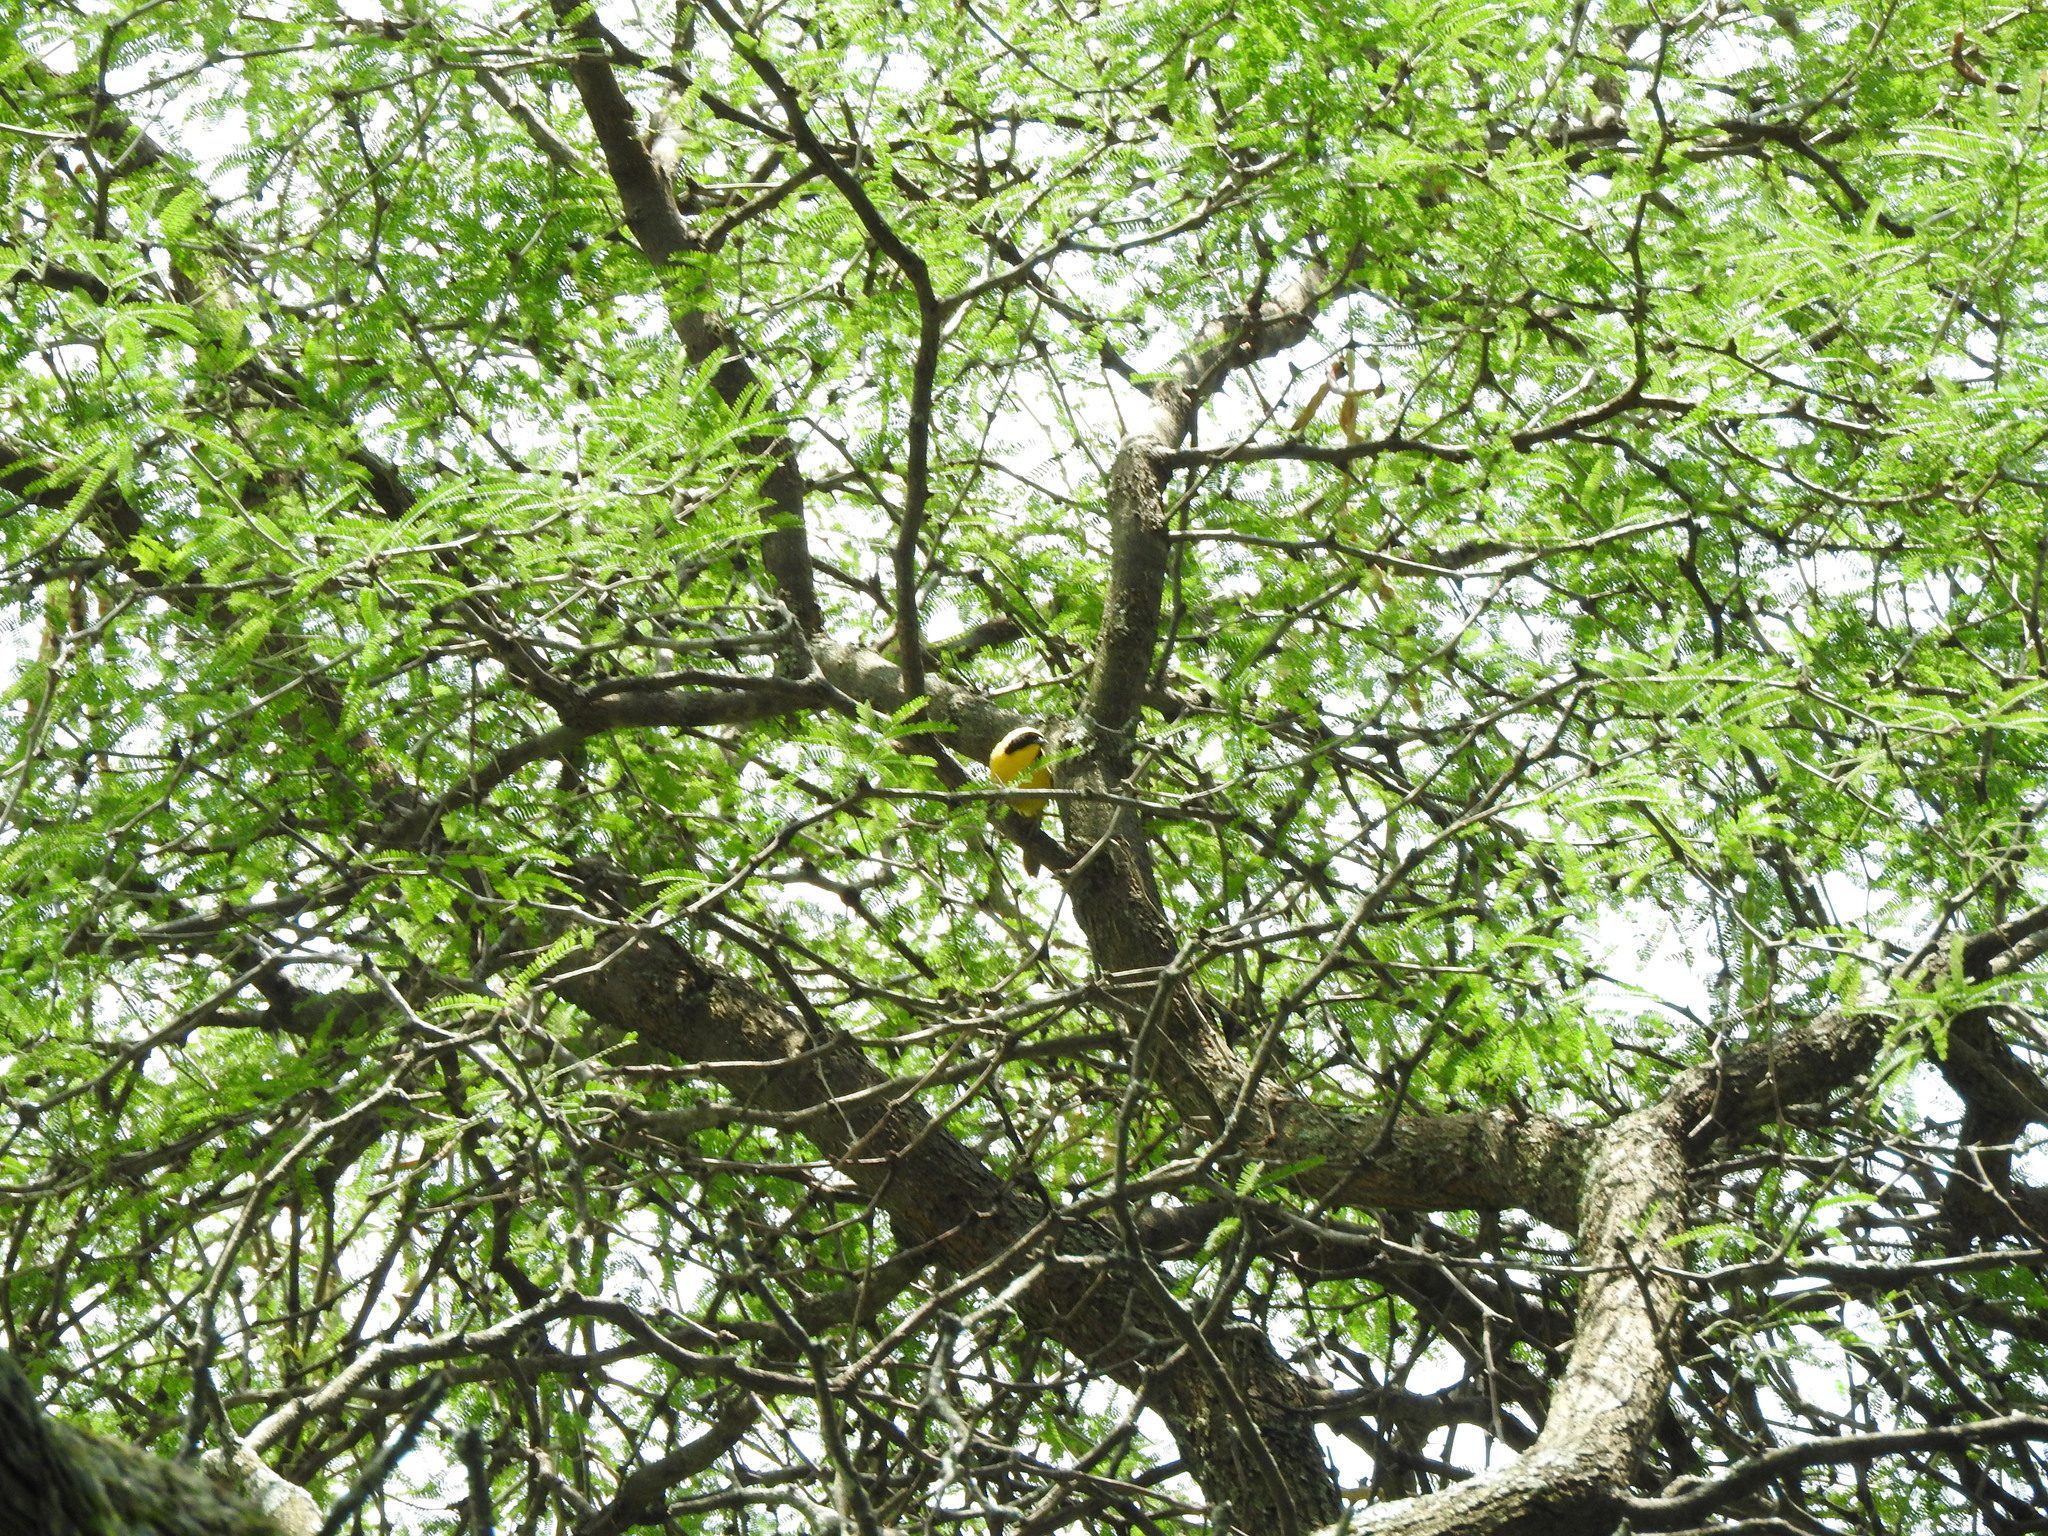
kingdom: Animalia
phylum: Chordata
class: Aves
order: Passeriformes
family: Parulidae
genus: Geothlypis
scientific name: Geothlypis trichas
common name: Common yellowthroat
